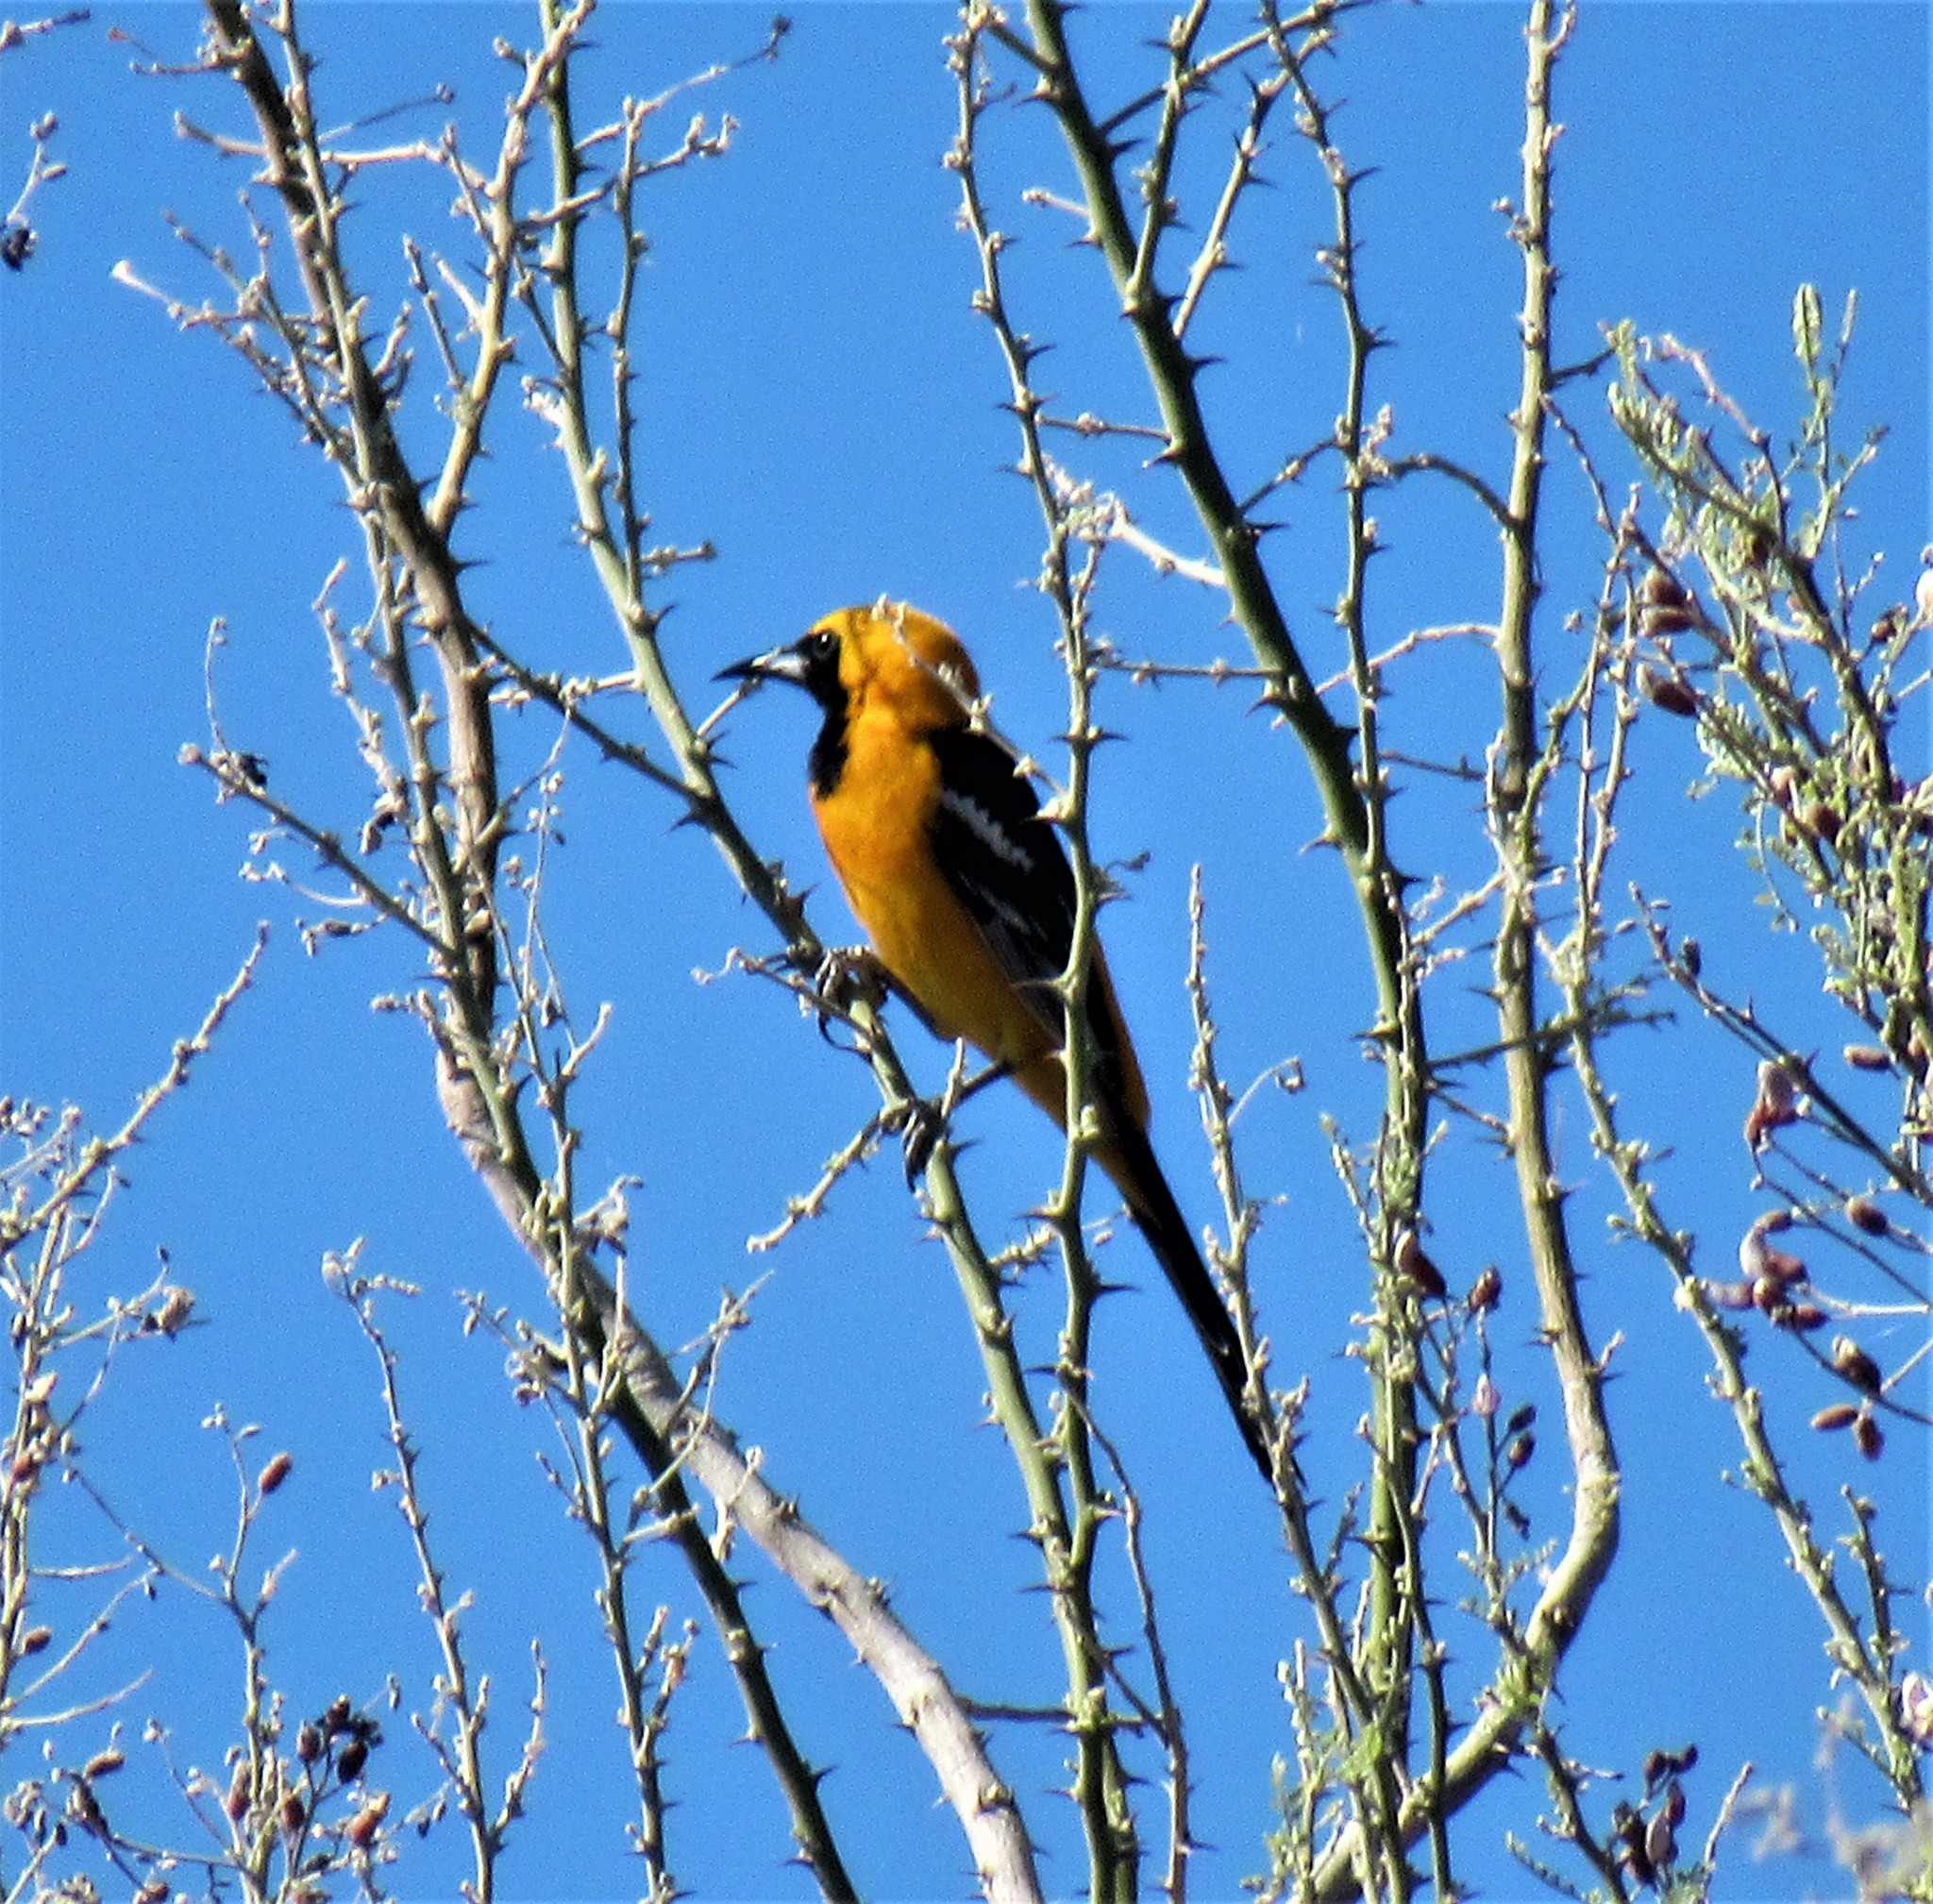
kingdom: Animalia
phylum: Chordata
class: Aves
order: Passeriformes
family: Icteridae
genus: Icterus
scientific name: Icterus cucullatus
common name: Hooded oriole
